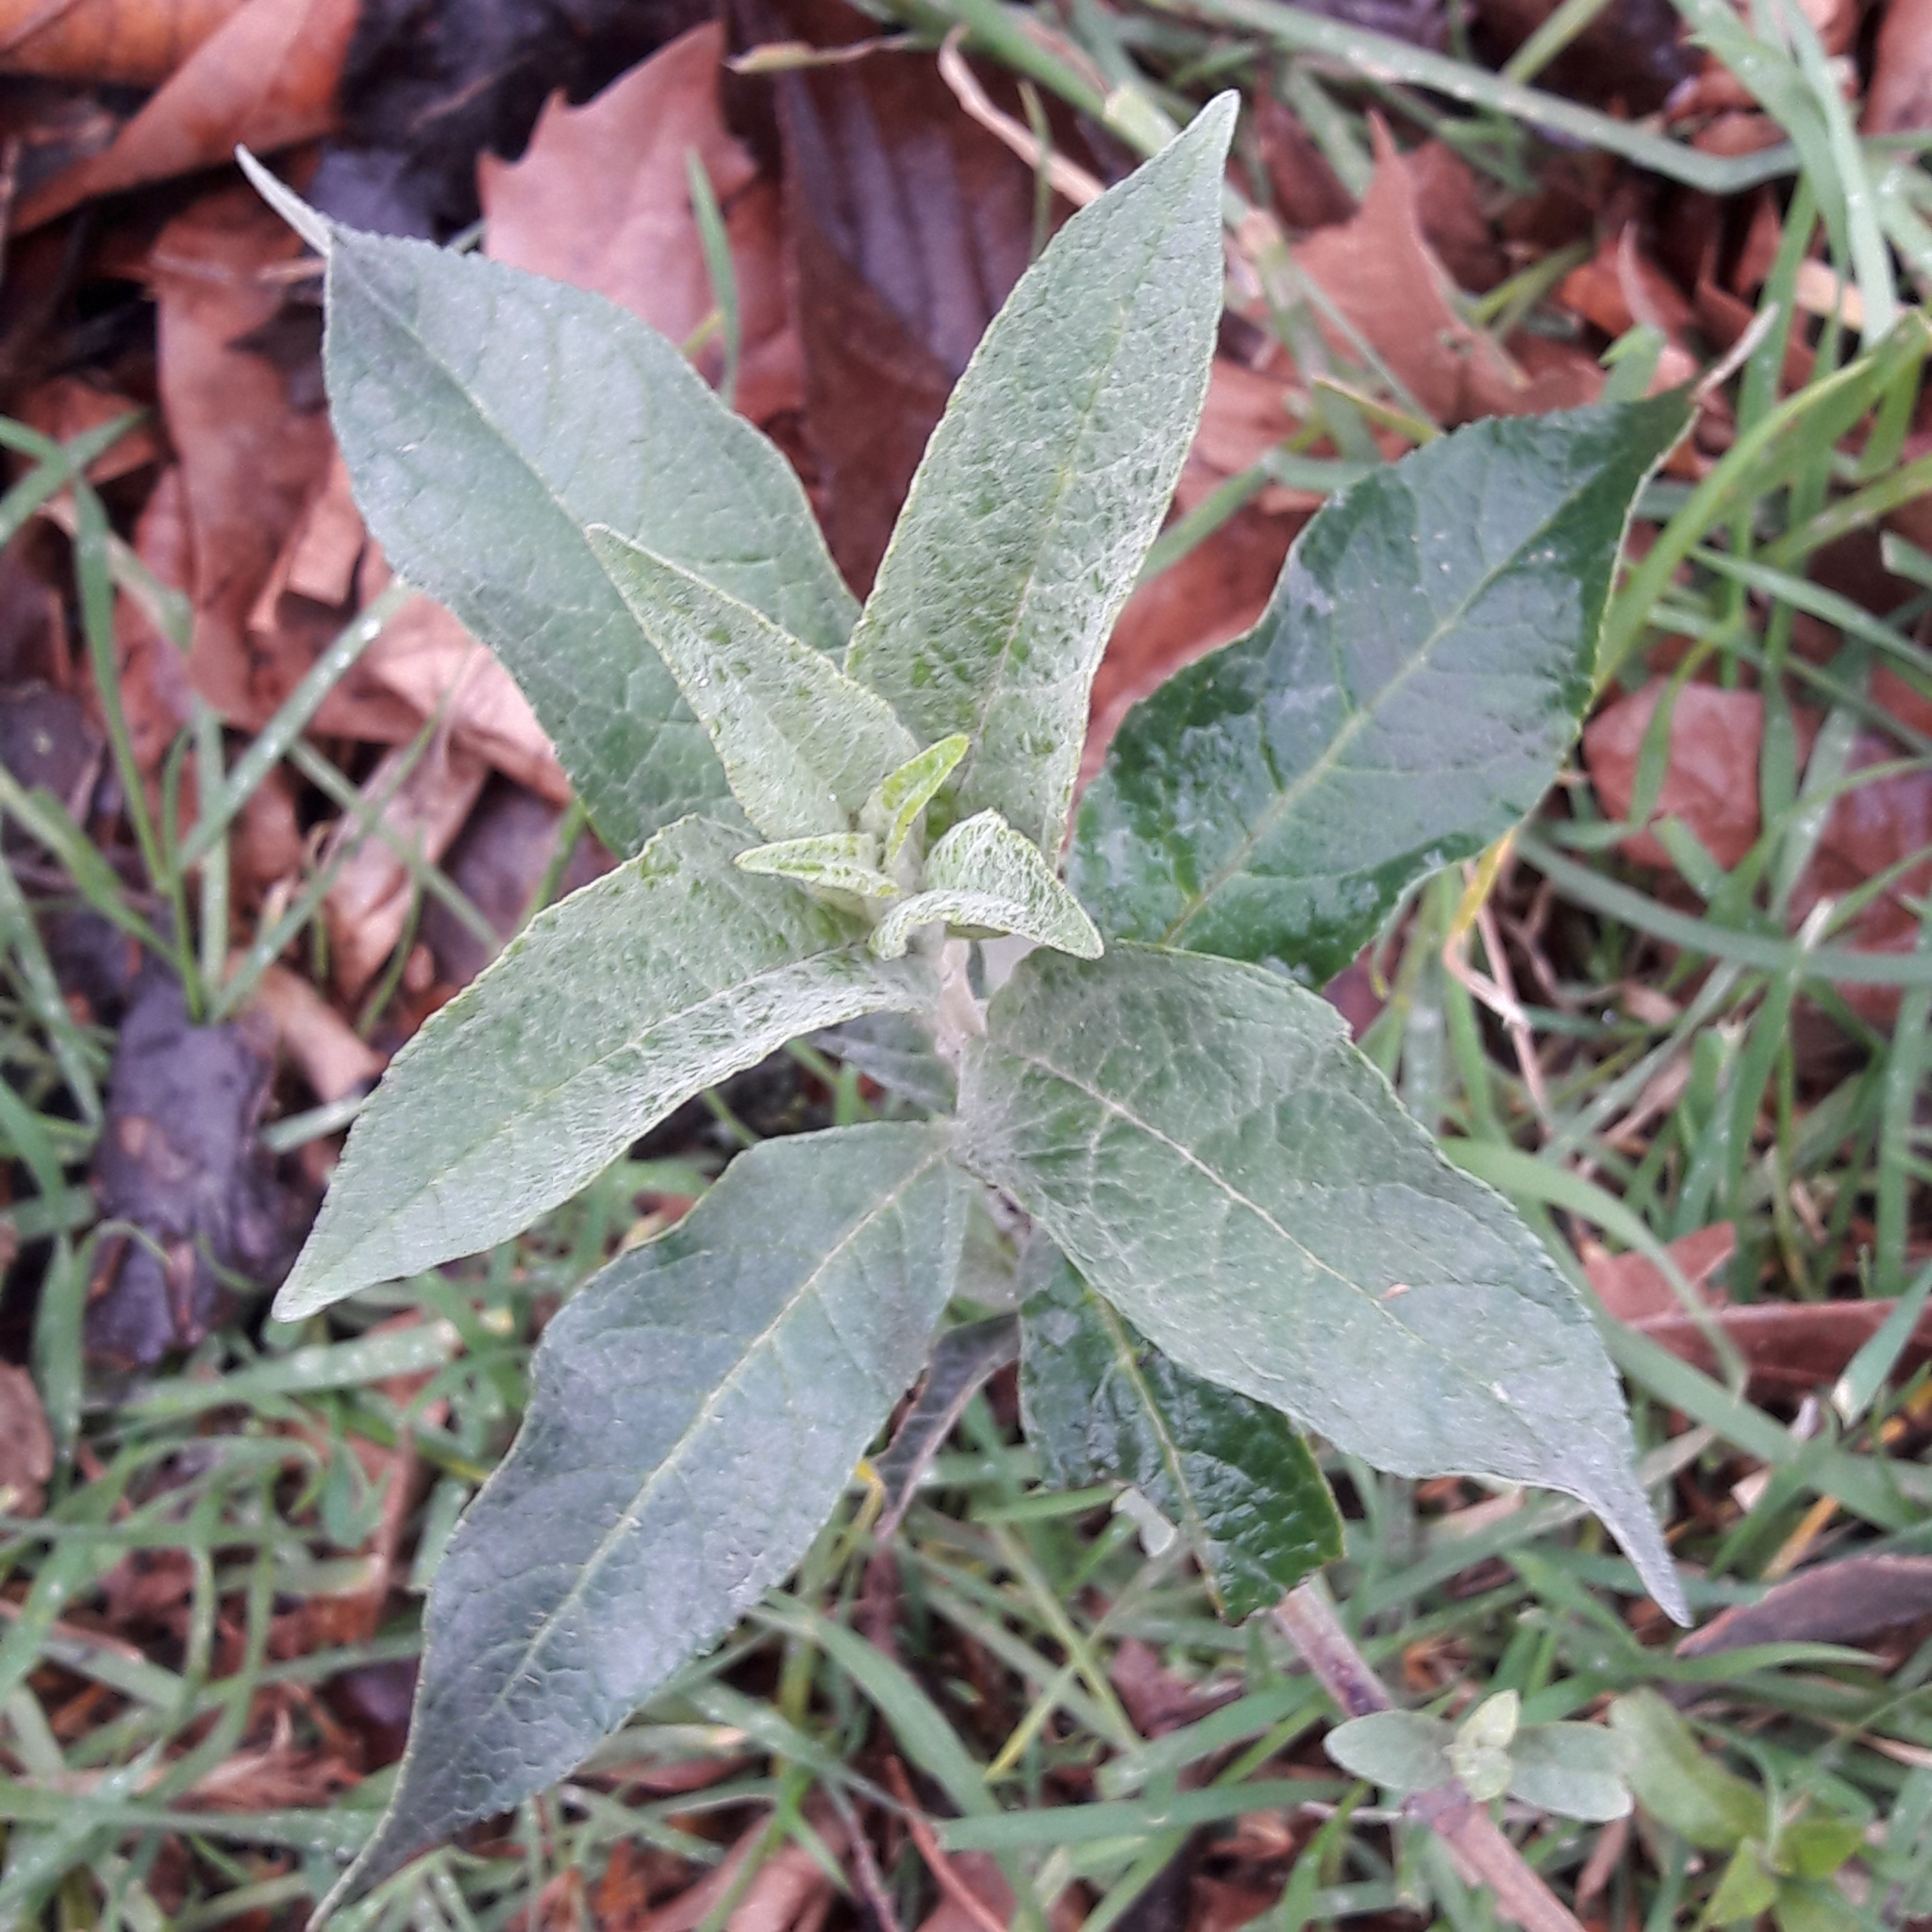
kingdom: Plantae
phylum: Tracheophyta
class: Magnoliopsida
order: Lamiales
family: Scrophulariaceae
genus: Buddleja
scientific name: Buddleja davidii
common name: Butterfly-bush
